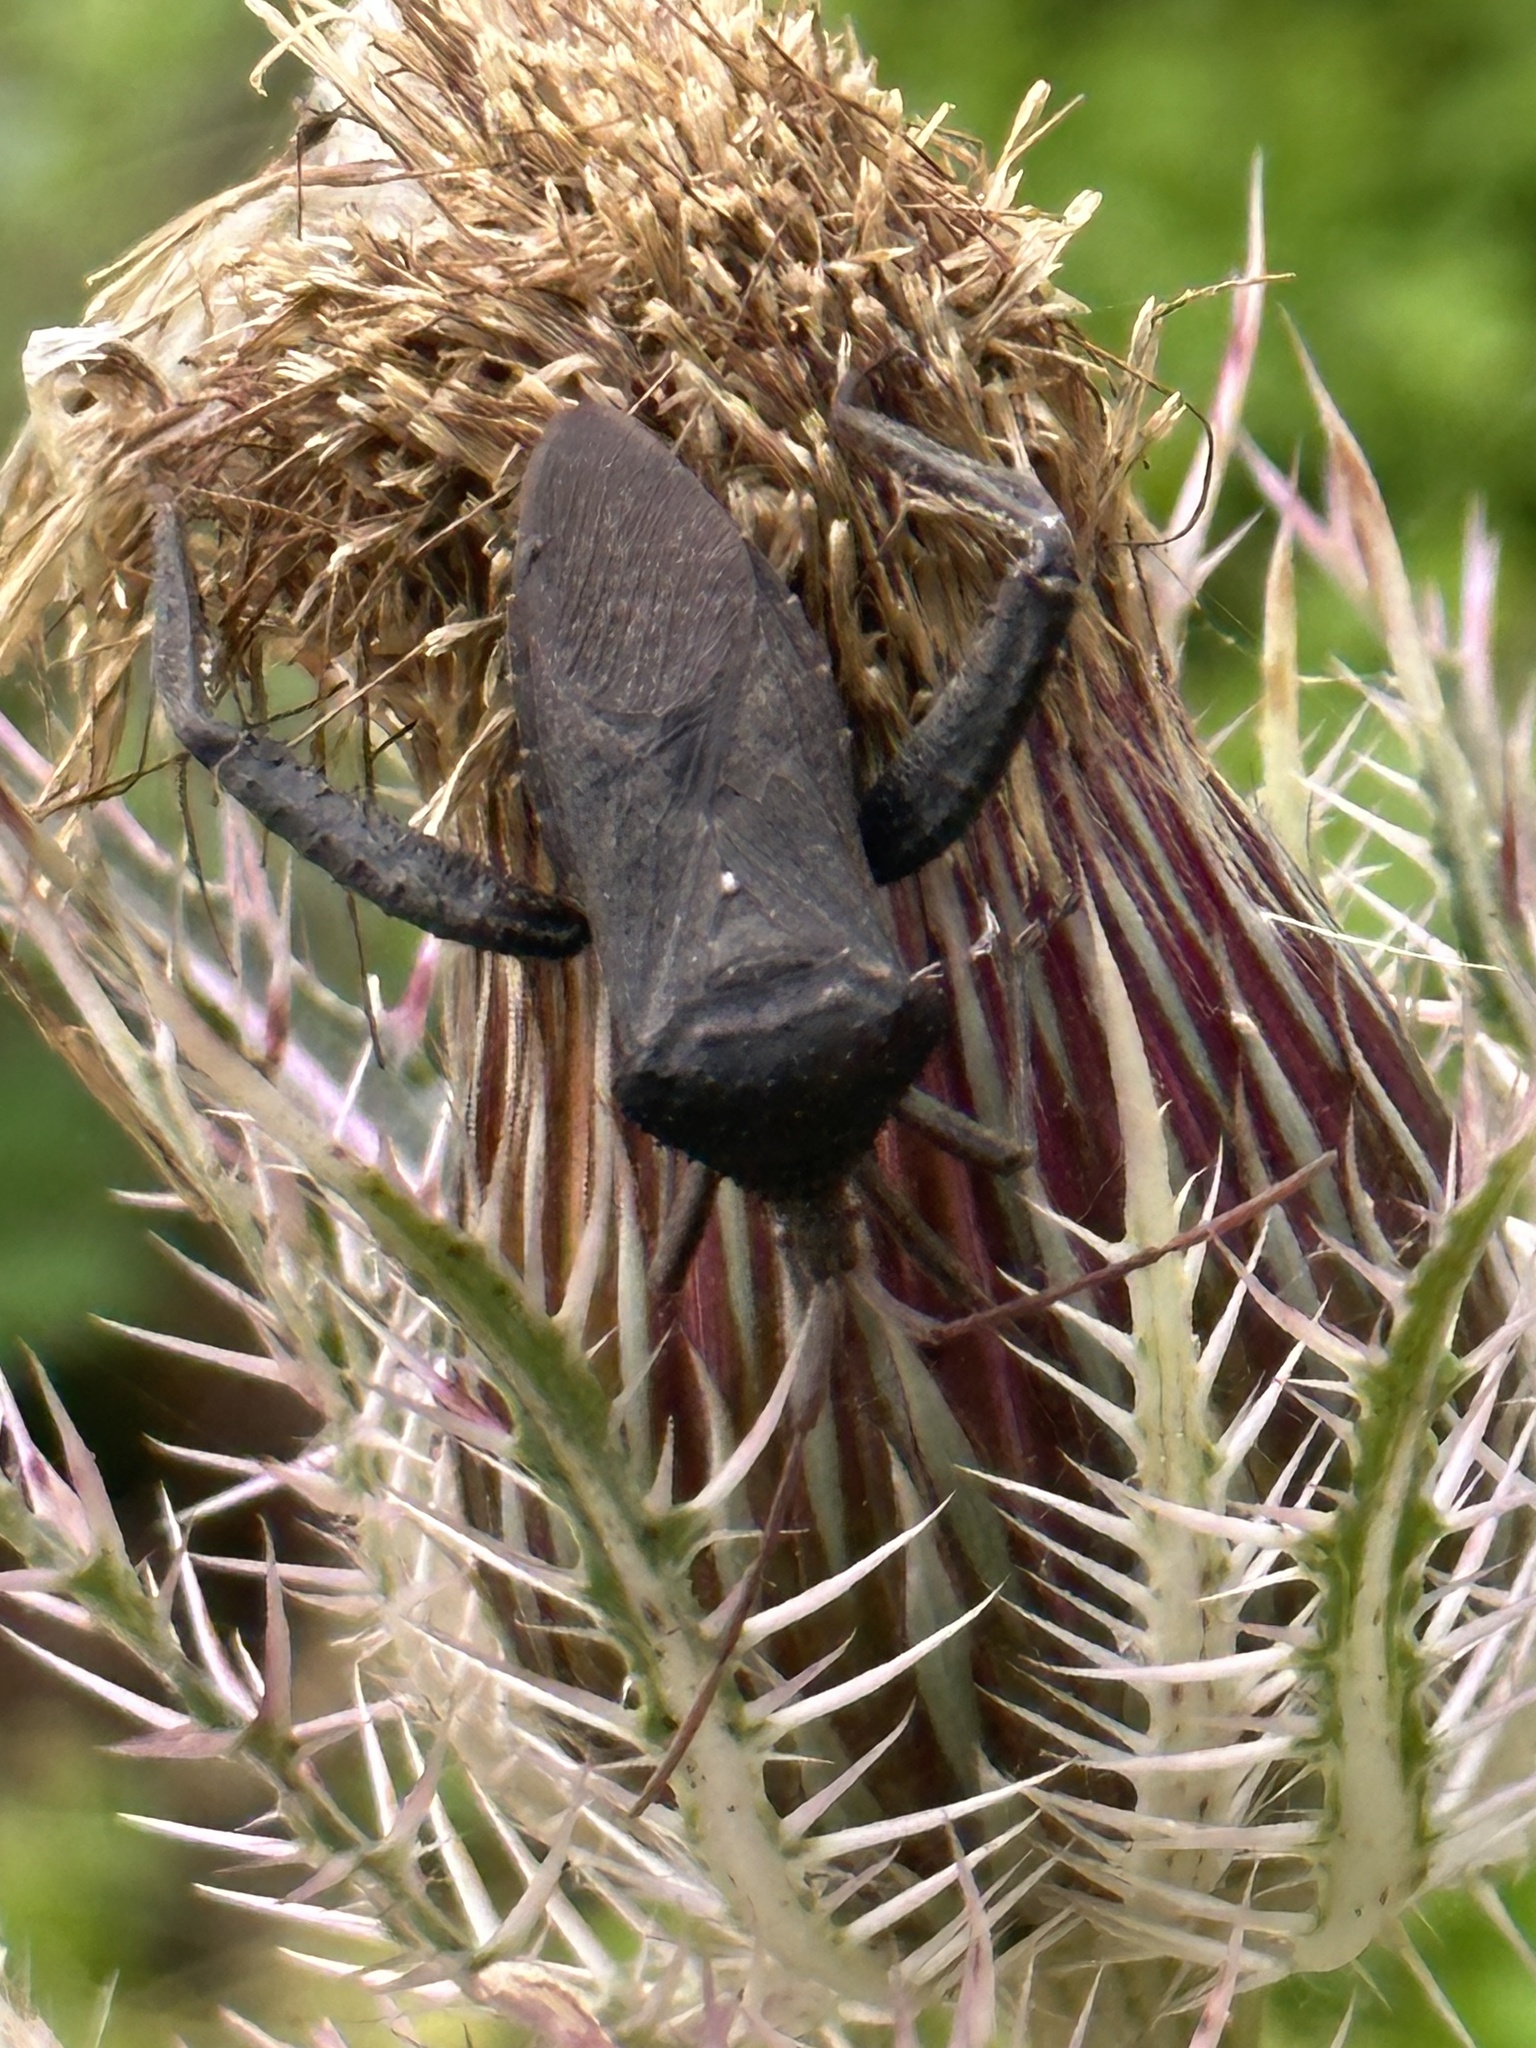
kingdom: Animalia
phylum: Arthropoda
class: Insecta
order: Hemiptera
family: Coreidae
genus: Acanthocephala
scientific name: Acanthocephala femorata
